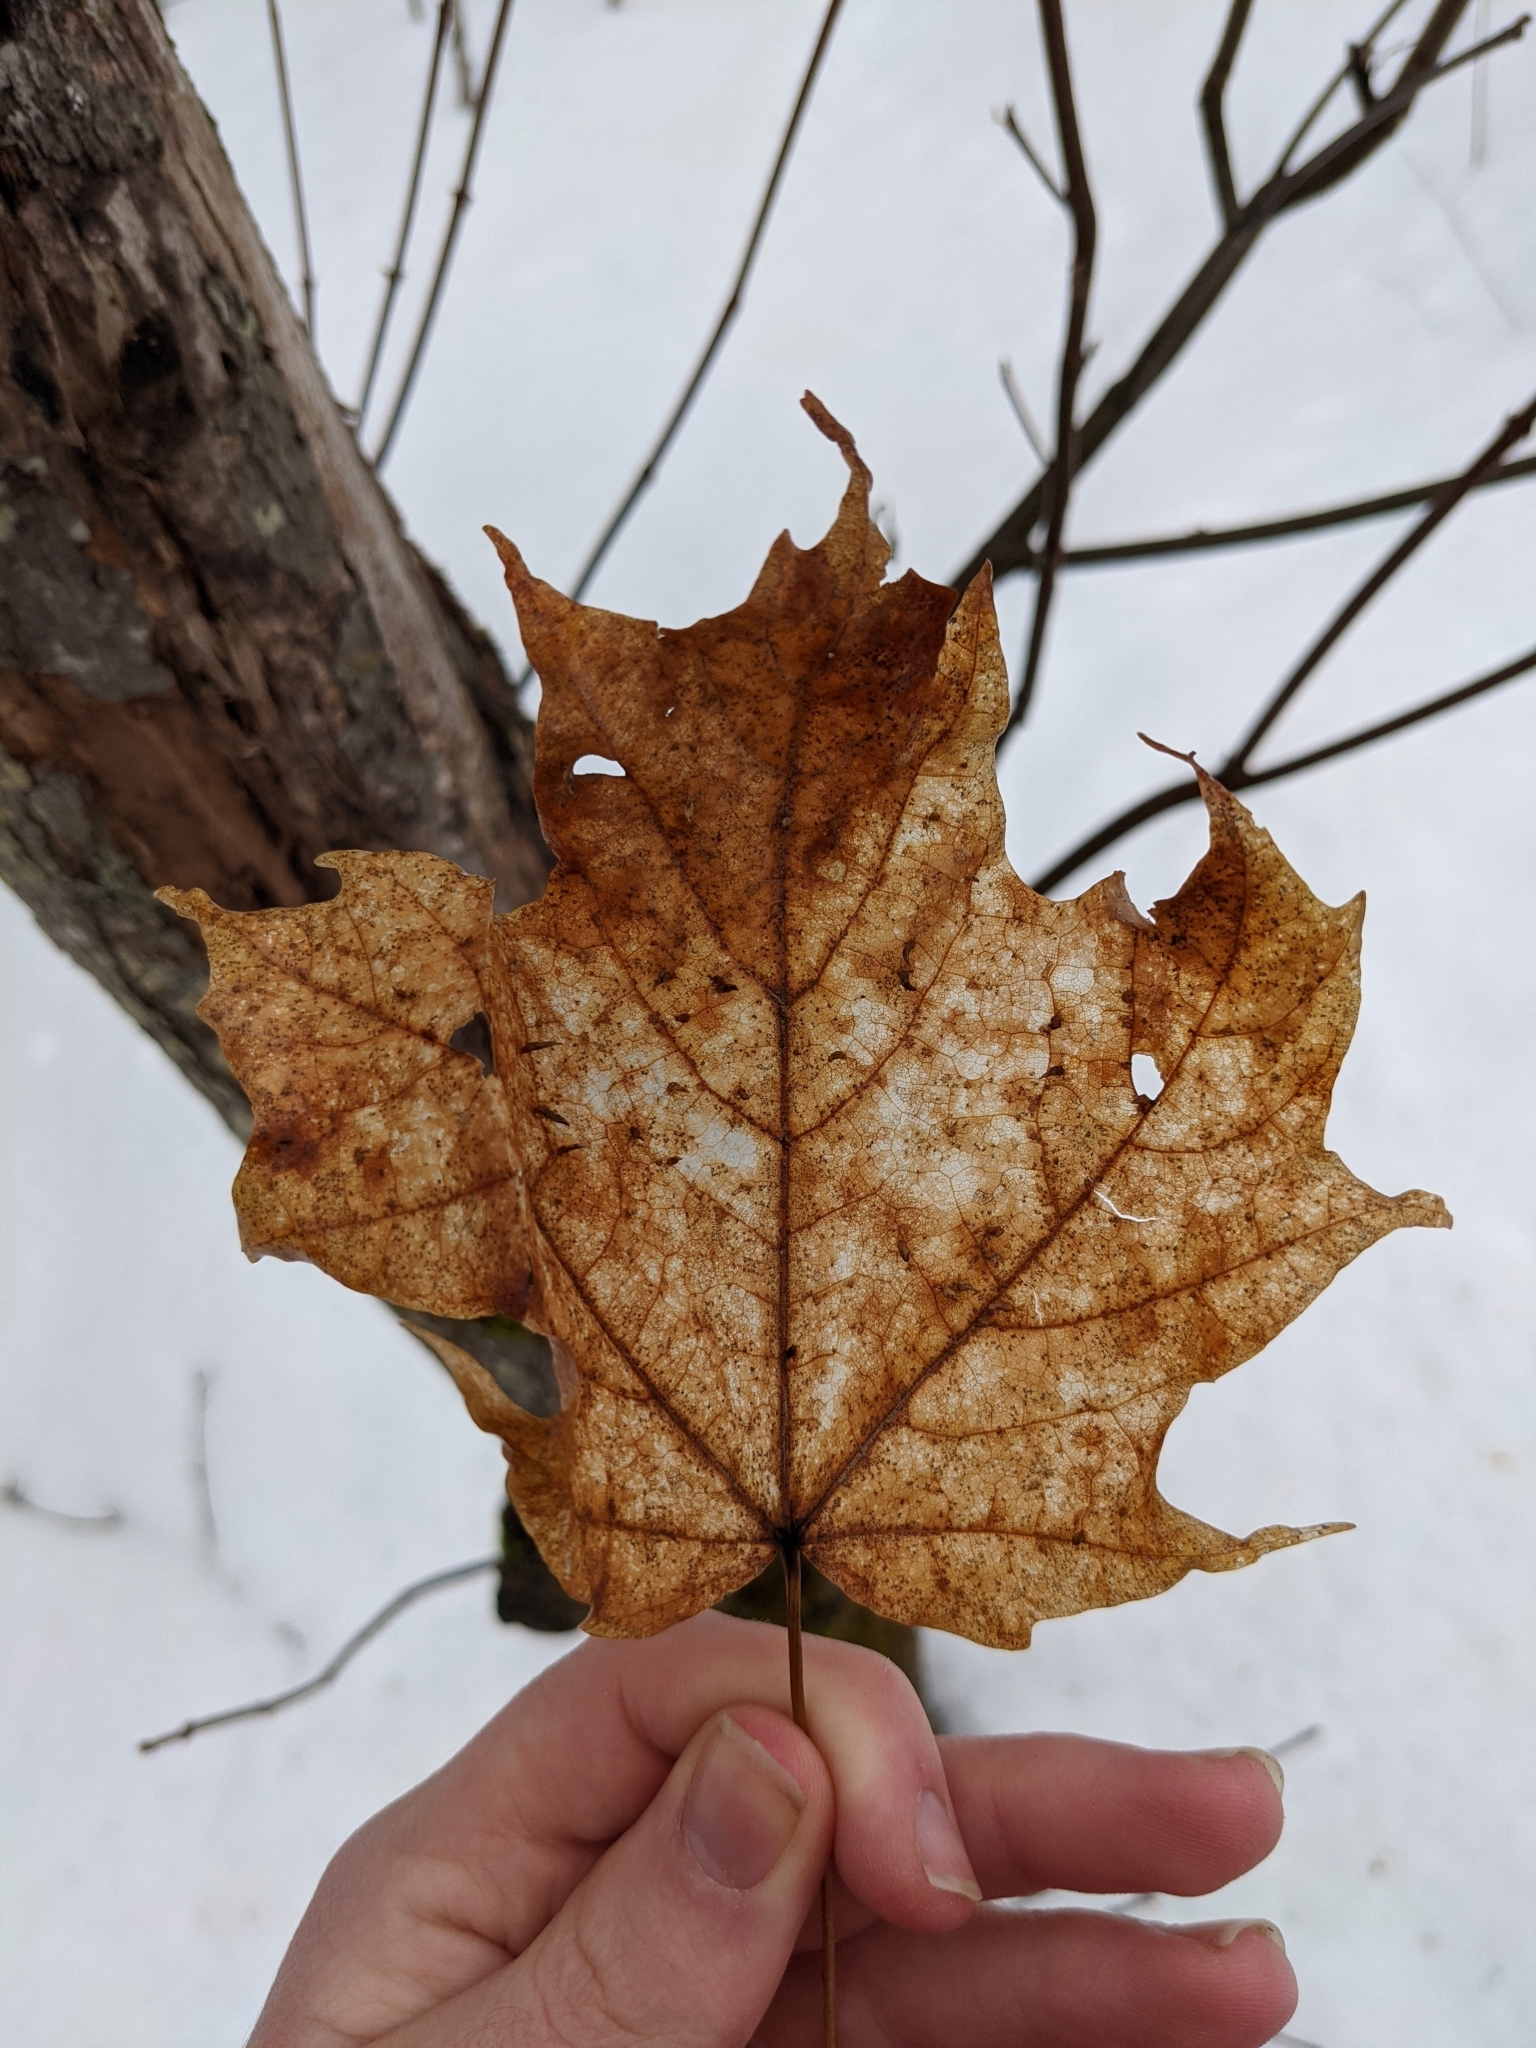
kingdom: Plantae
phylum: Tracheophyta
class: Magnoliopsida
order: Sapindales
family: Sapindaceae
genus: Acer
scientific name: Acer saccharum
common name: Sugar maple
